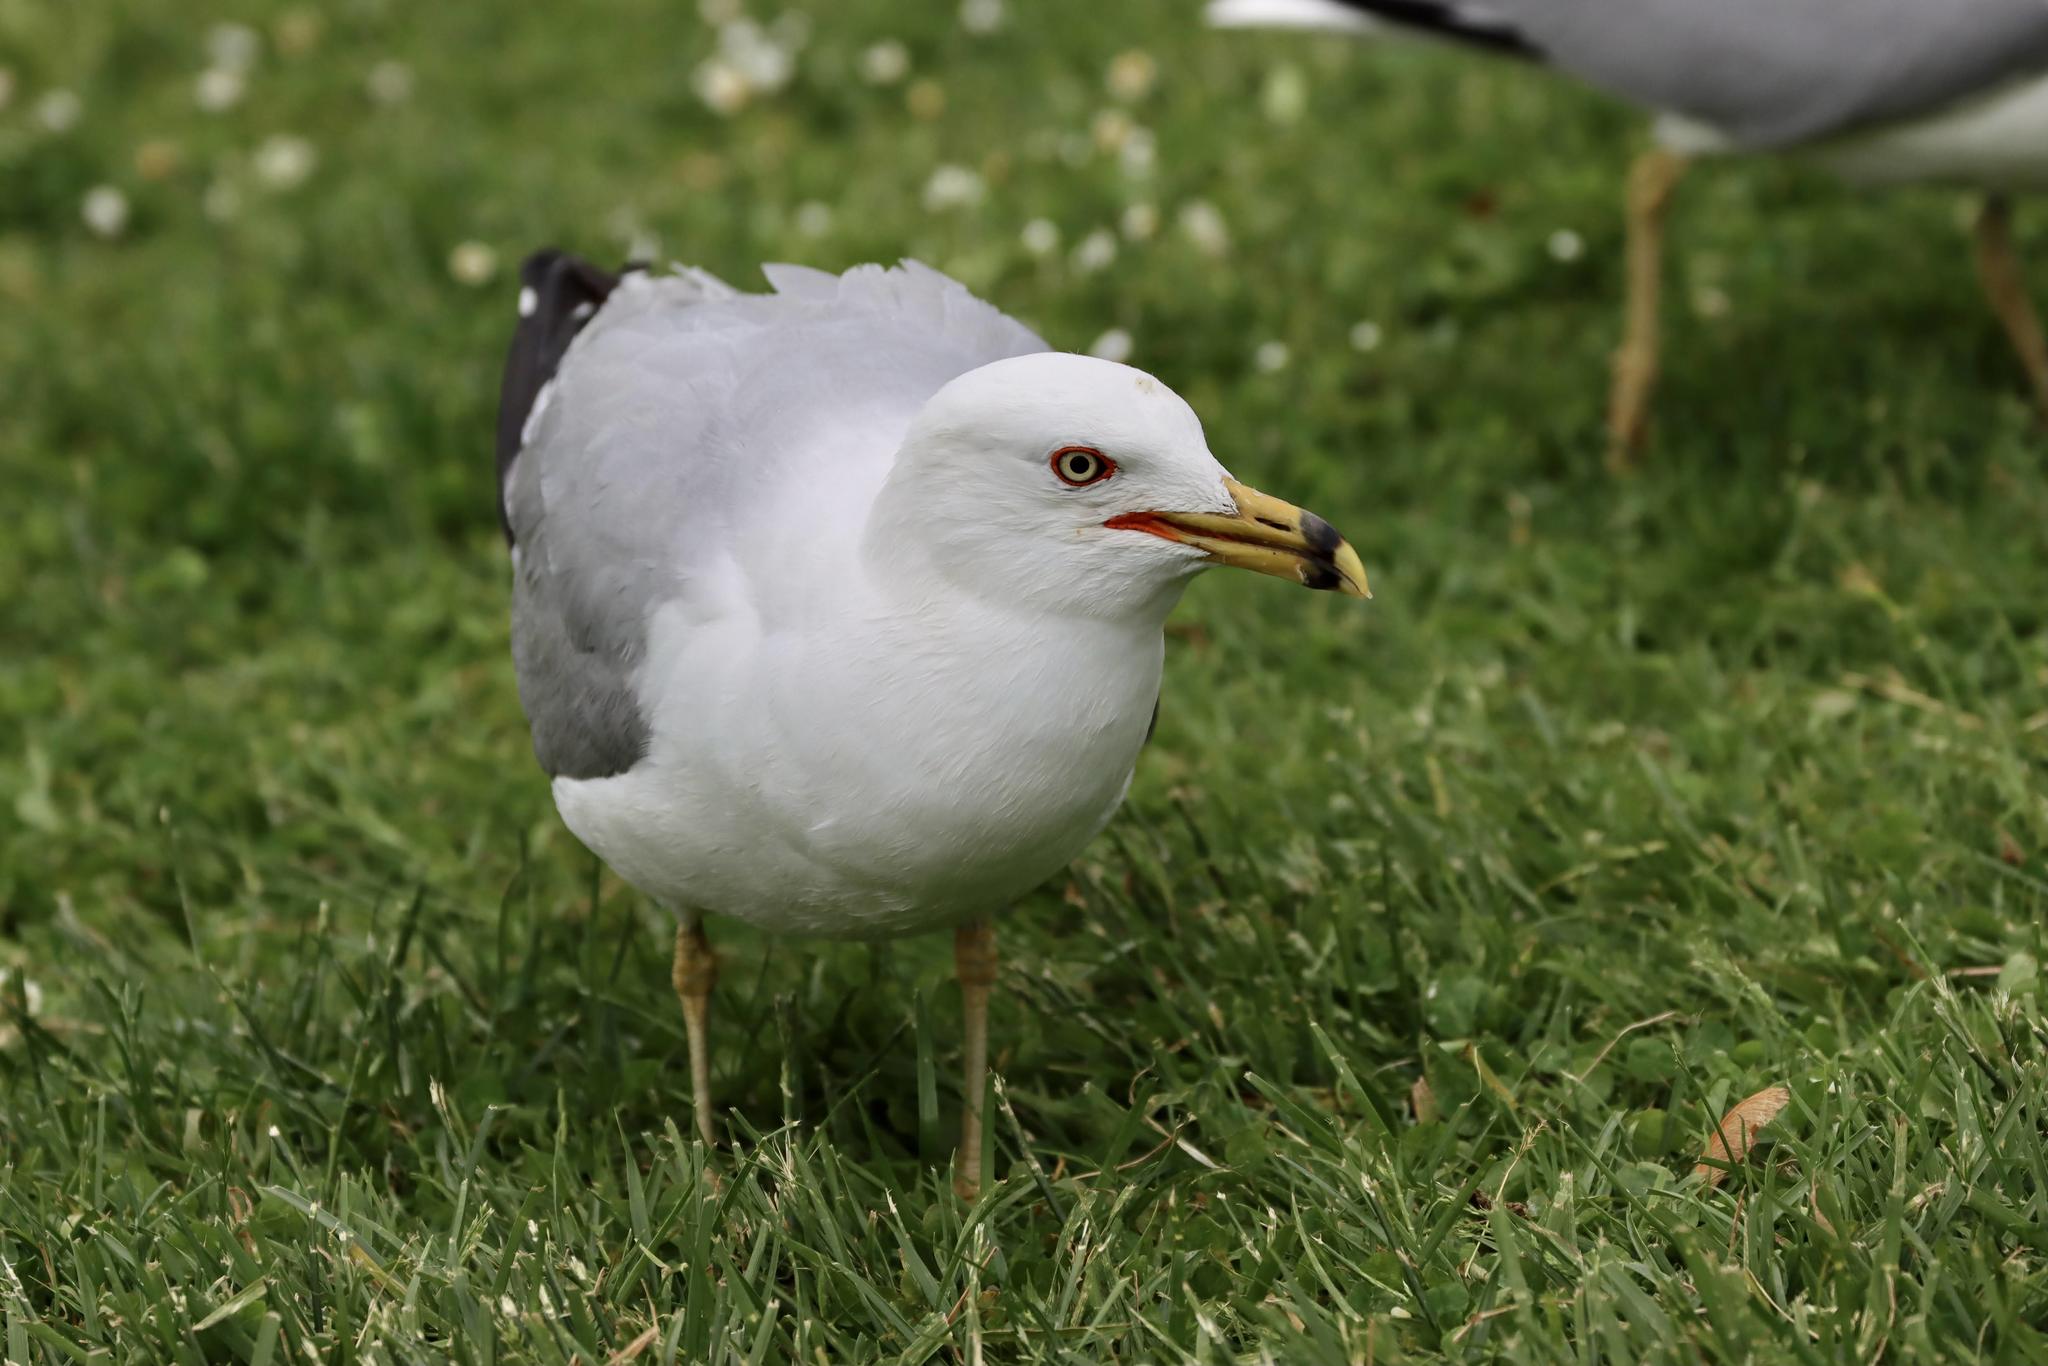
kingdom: Animalia
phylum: Chordata
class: Aves
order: Charadriiformes
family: Laridae
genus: Larus
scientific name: Larus delawarensis
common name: Ring-billed gull
